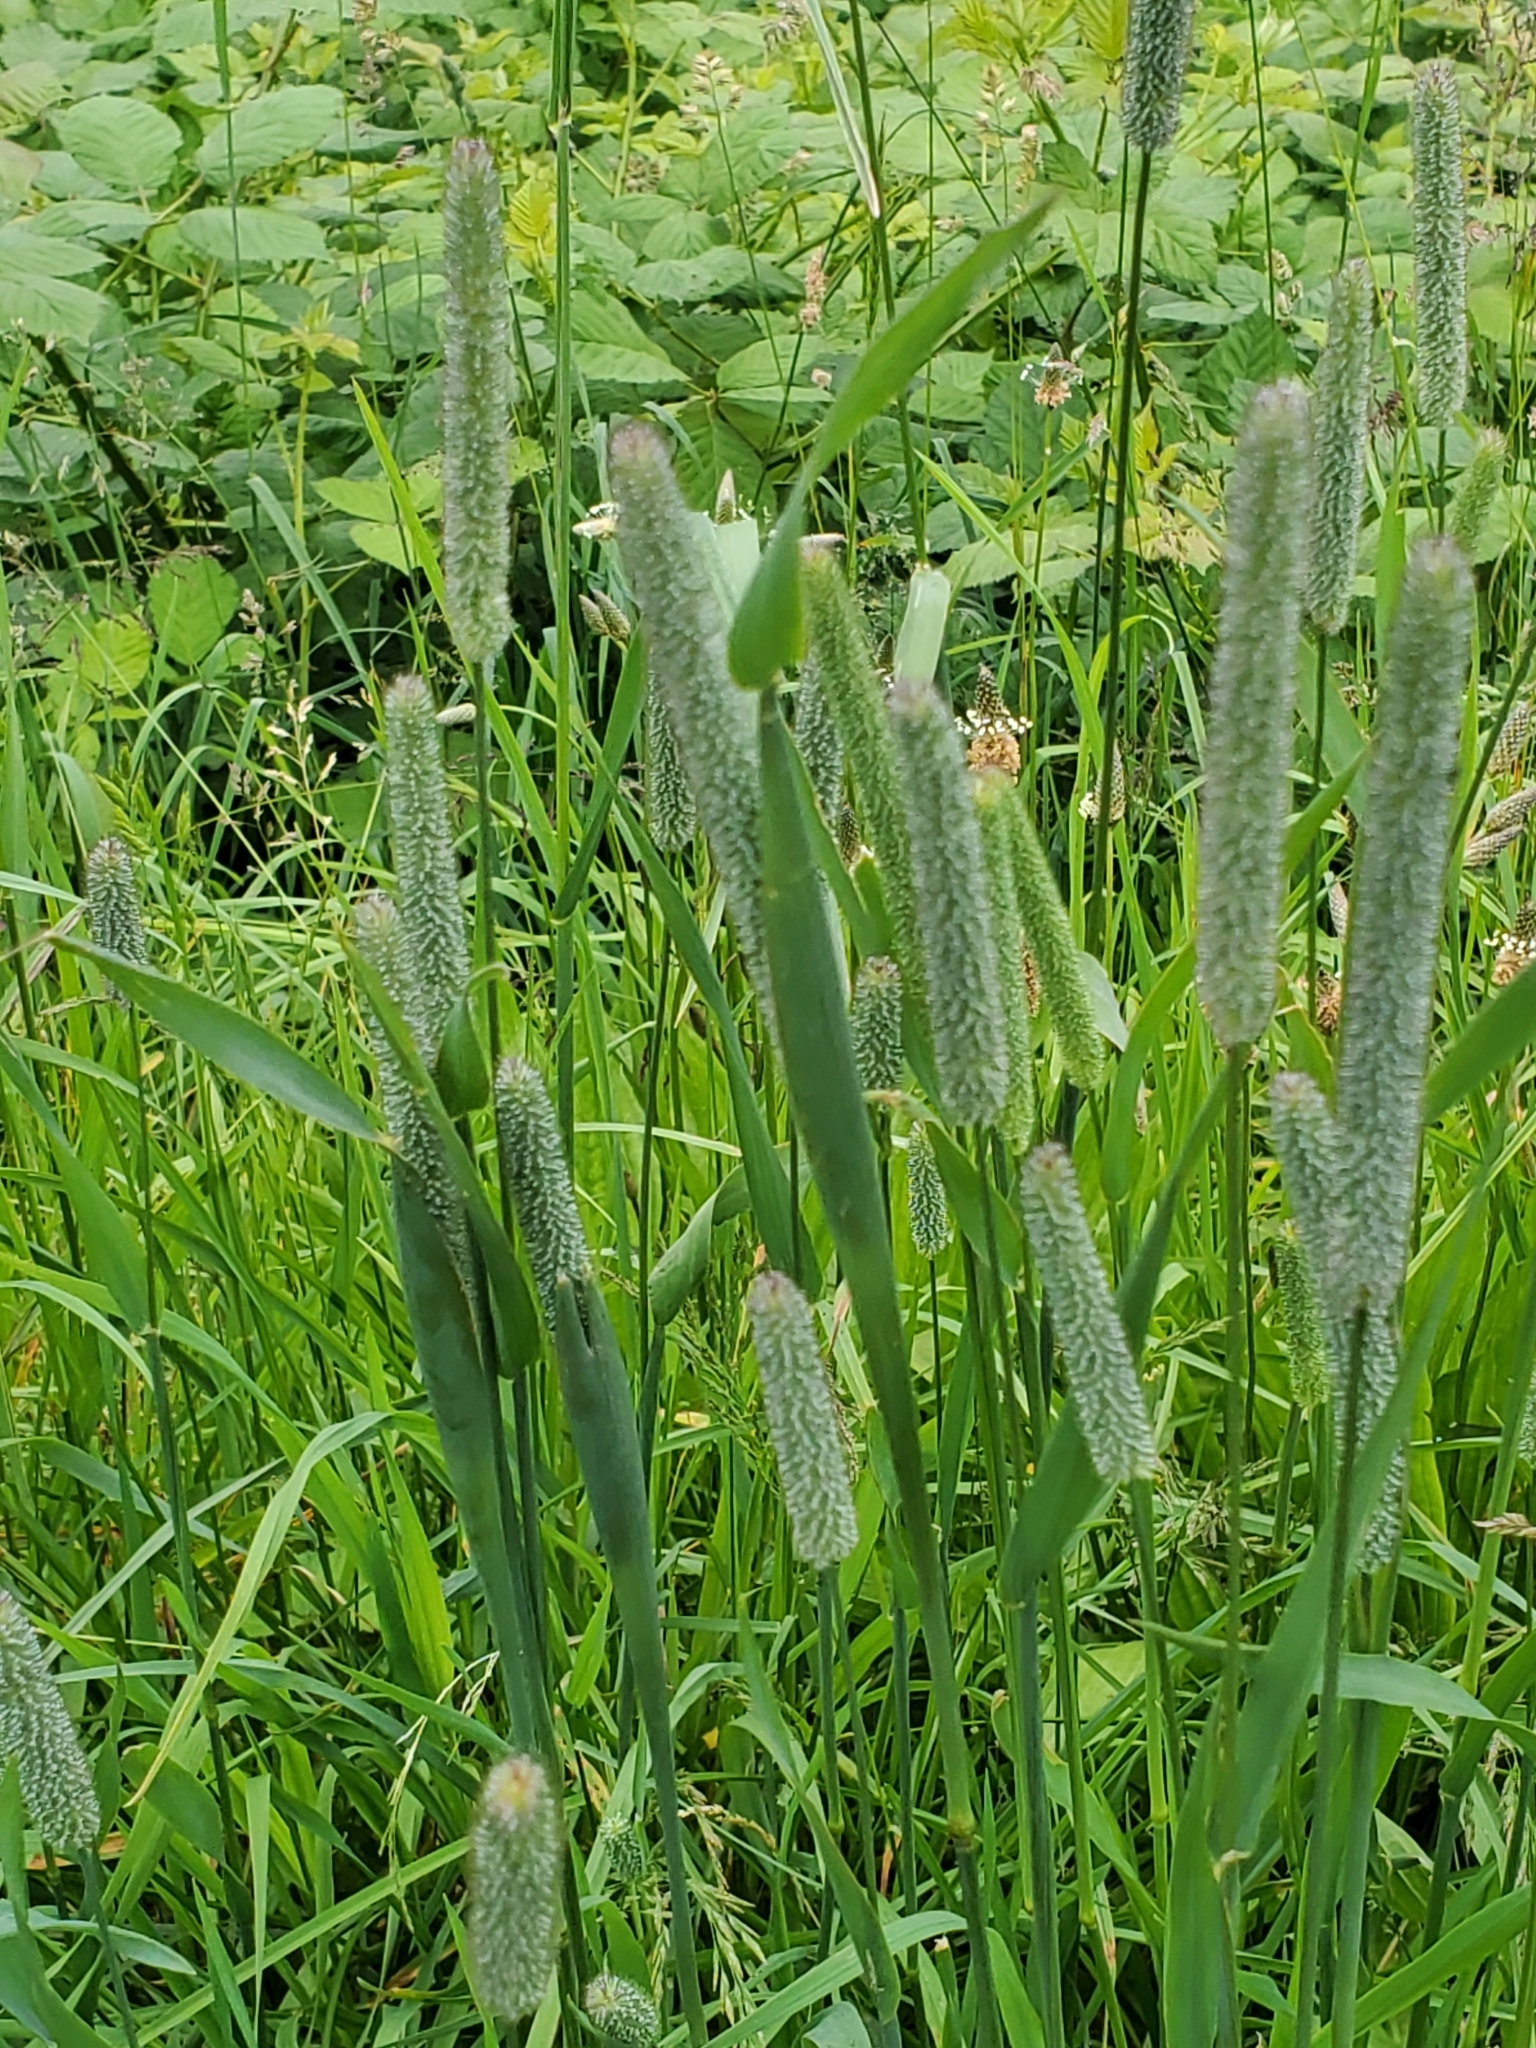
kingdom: Plantae
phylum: Tracheophyta
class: Liliopsida
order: Poales
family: Poaceae
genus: Phleum
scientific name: Phleum pratense
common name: Timothy grass
